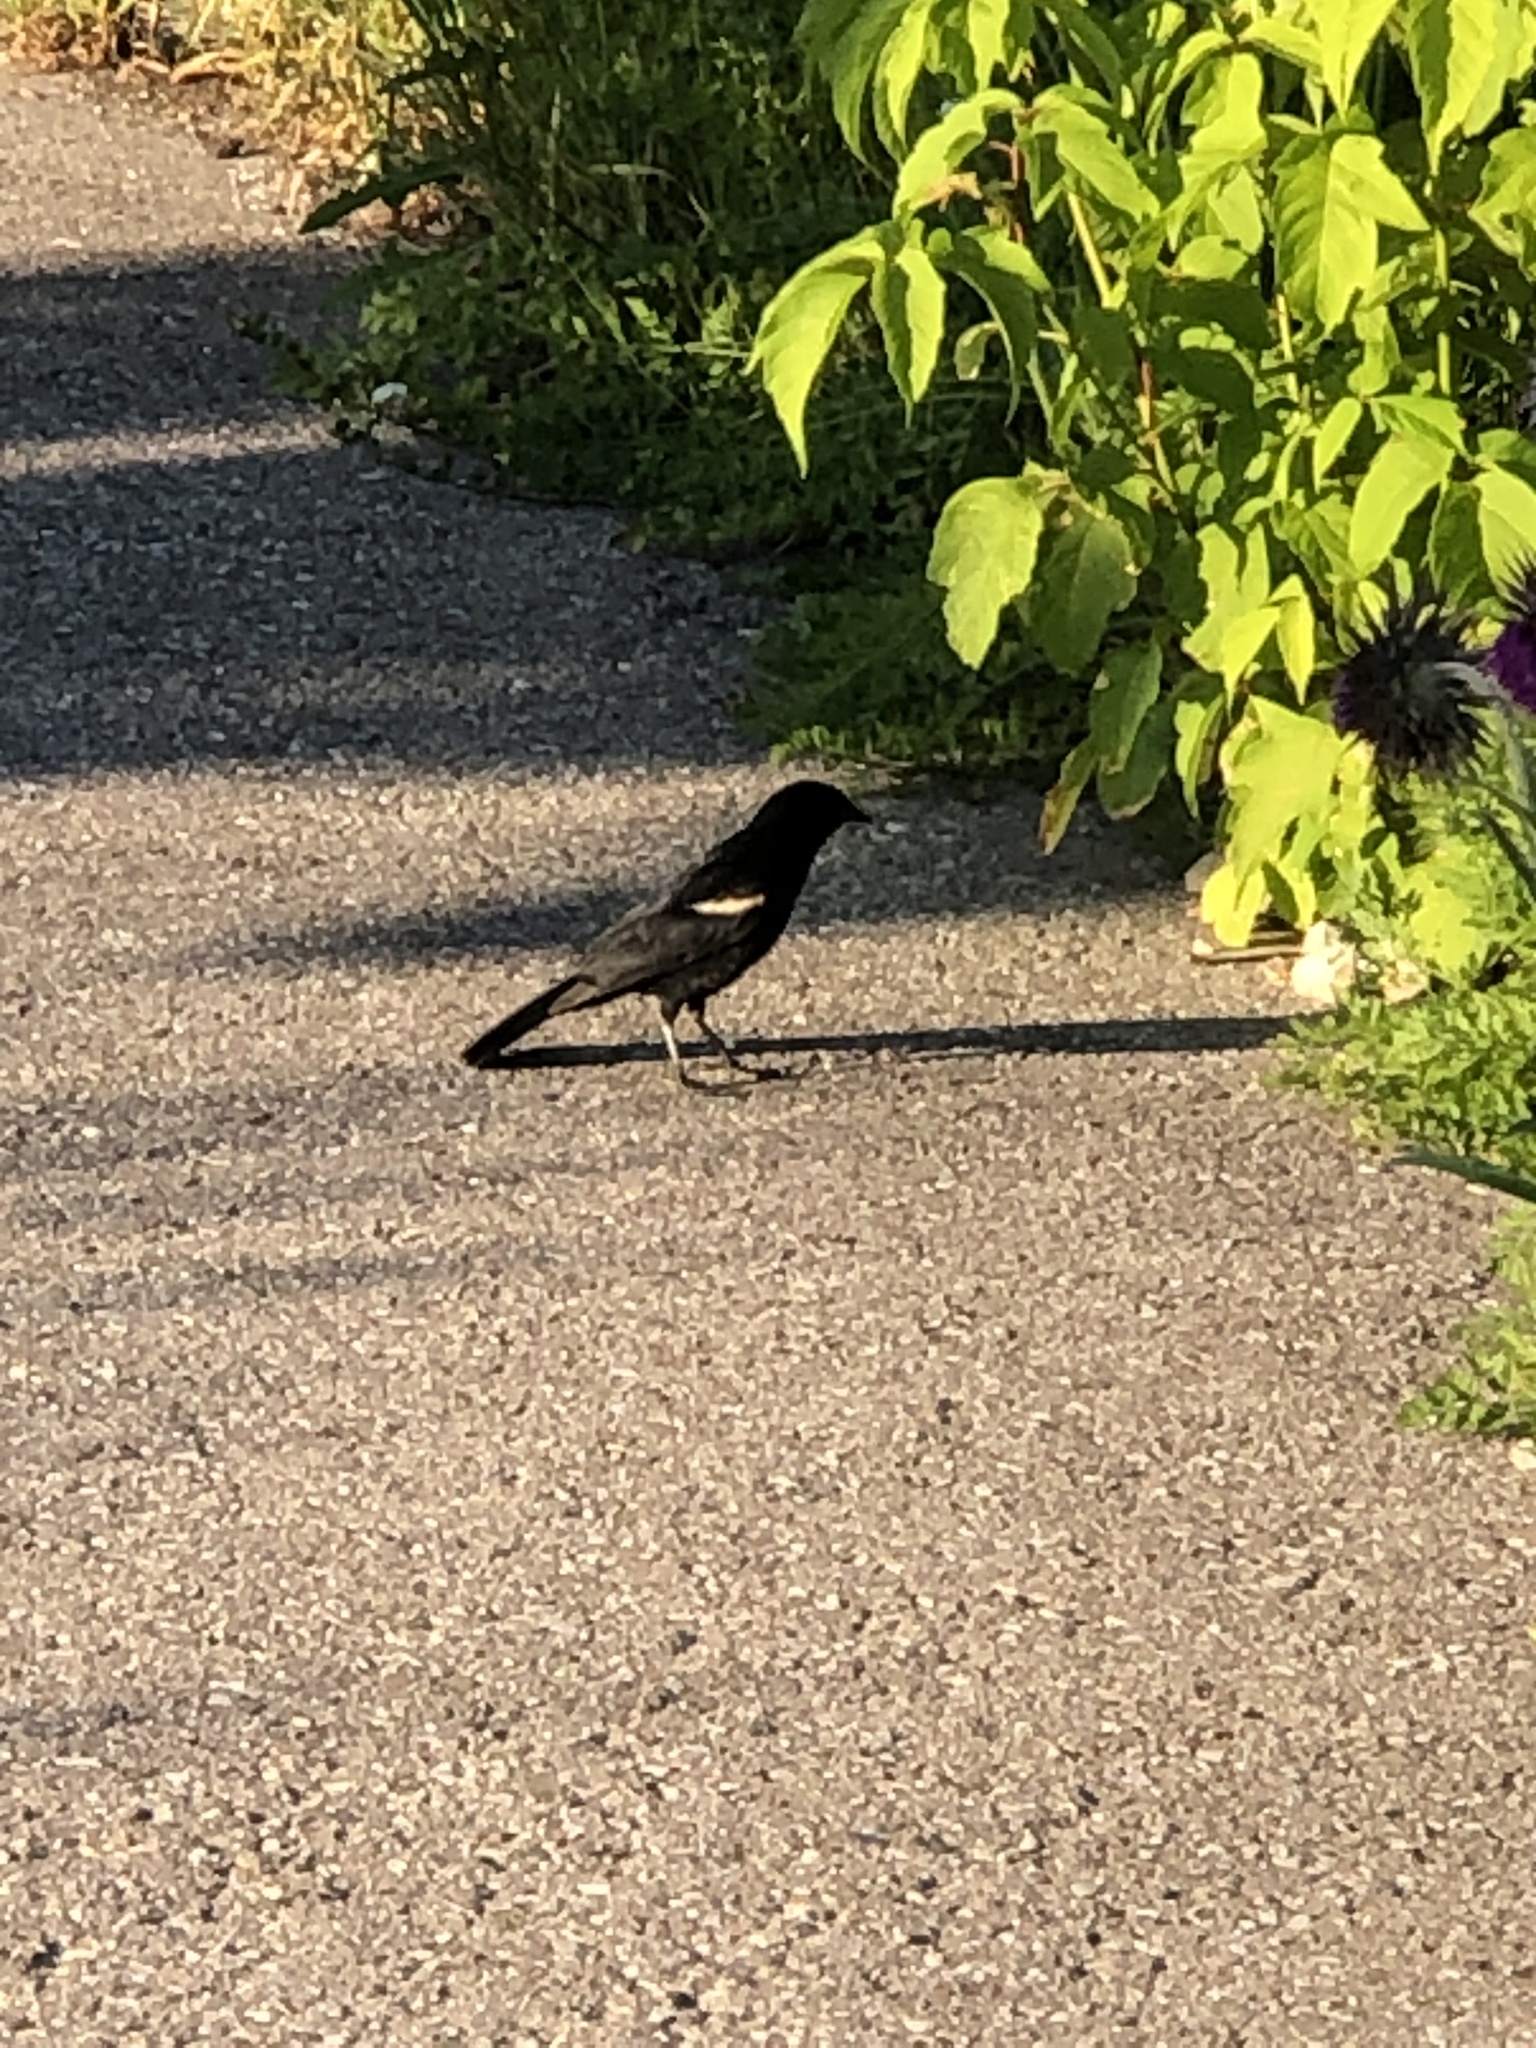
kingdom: Animalia
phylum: Chordata
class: Aves
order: Passeriformes
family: Icteridae
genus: Agelaius
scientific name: Agelaius phoeniceus
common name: Red-winged blackbird
